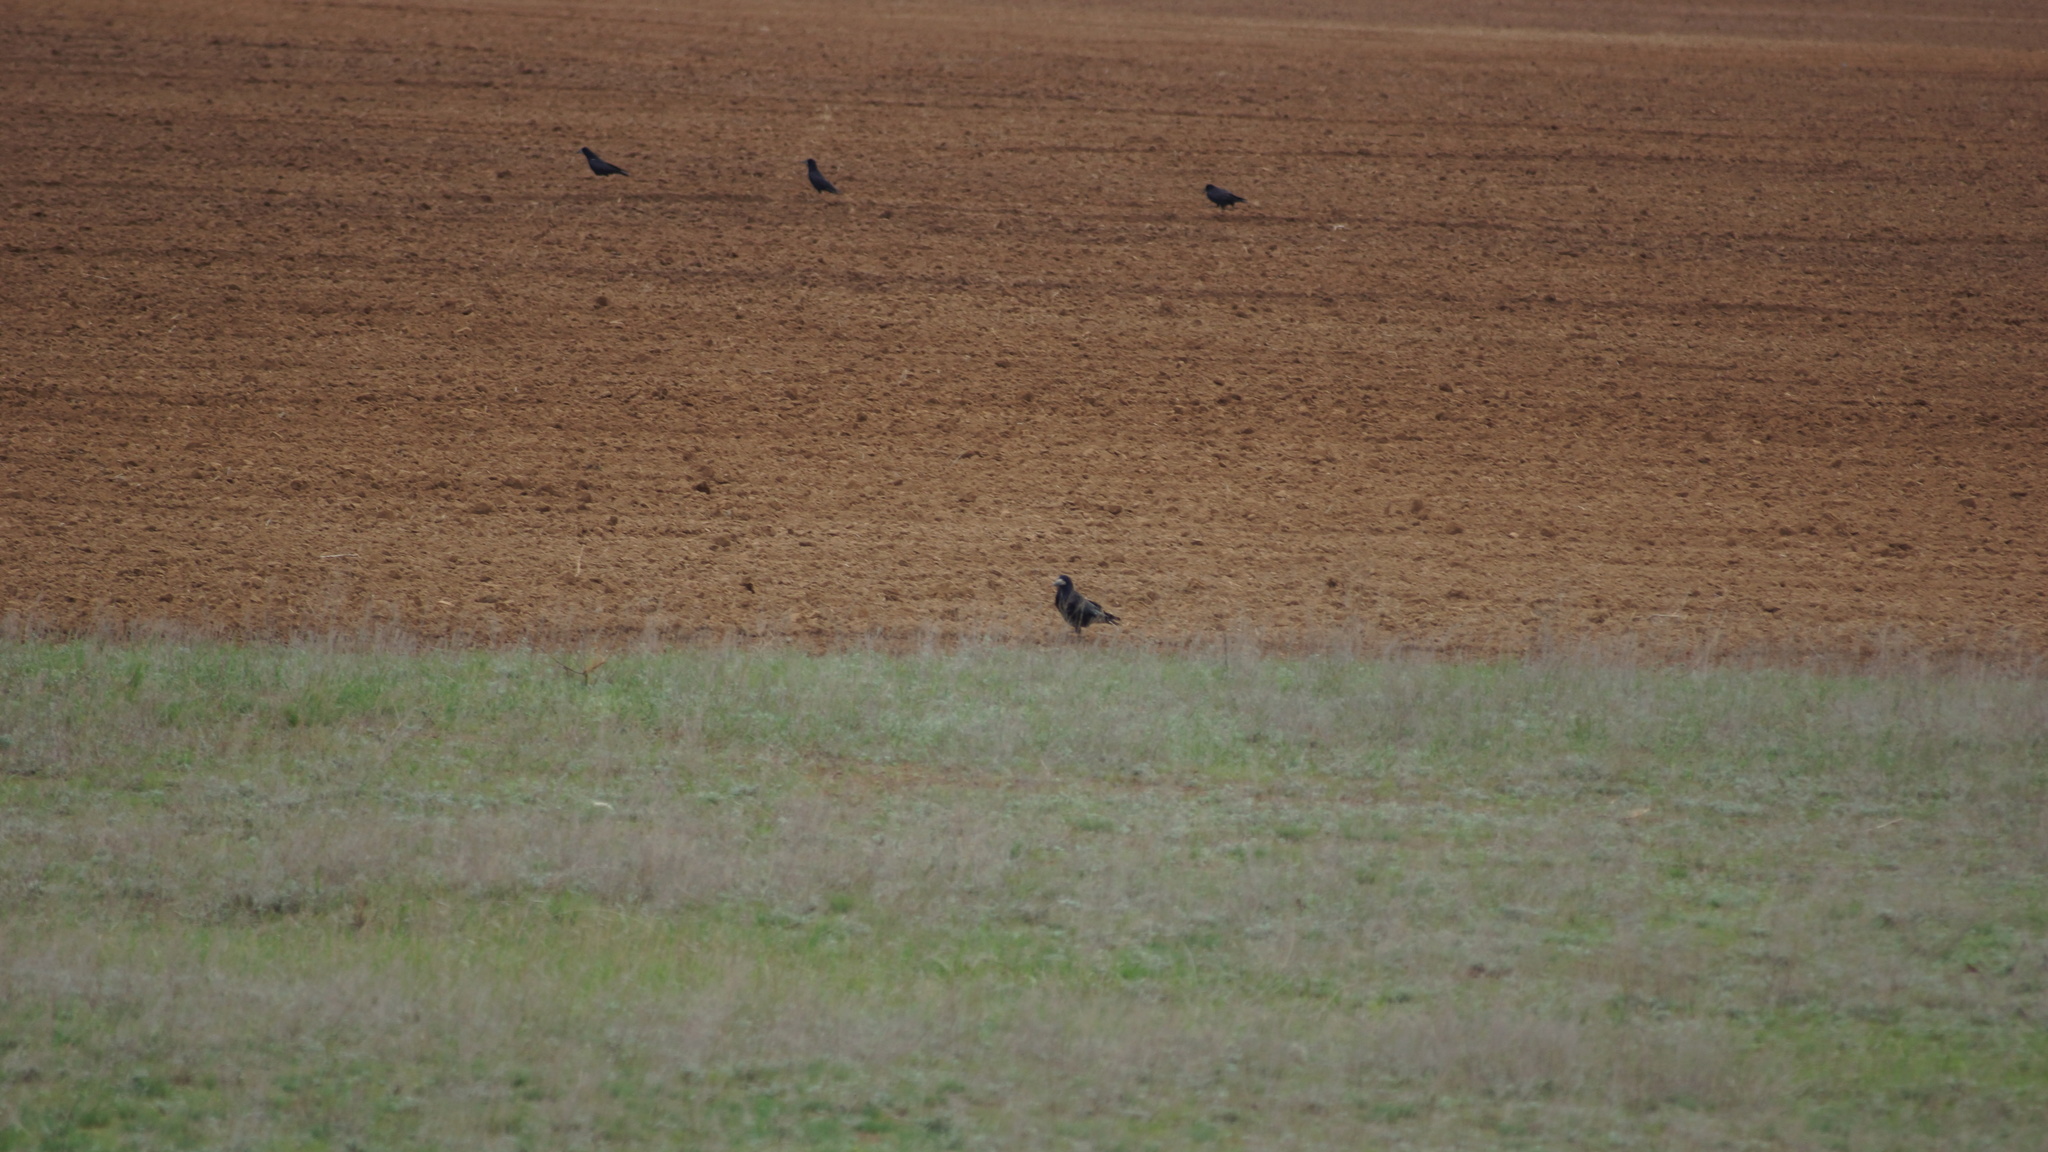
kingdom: Animalia
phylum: Chordata
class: Aves
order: Passeriformes
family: Corvidae
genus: Corvus
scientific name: Corvus frugilegus
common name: Rook
